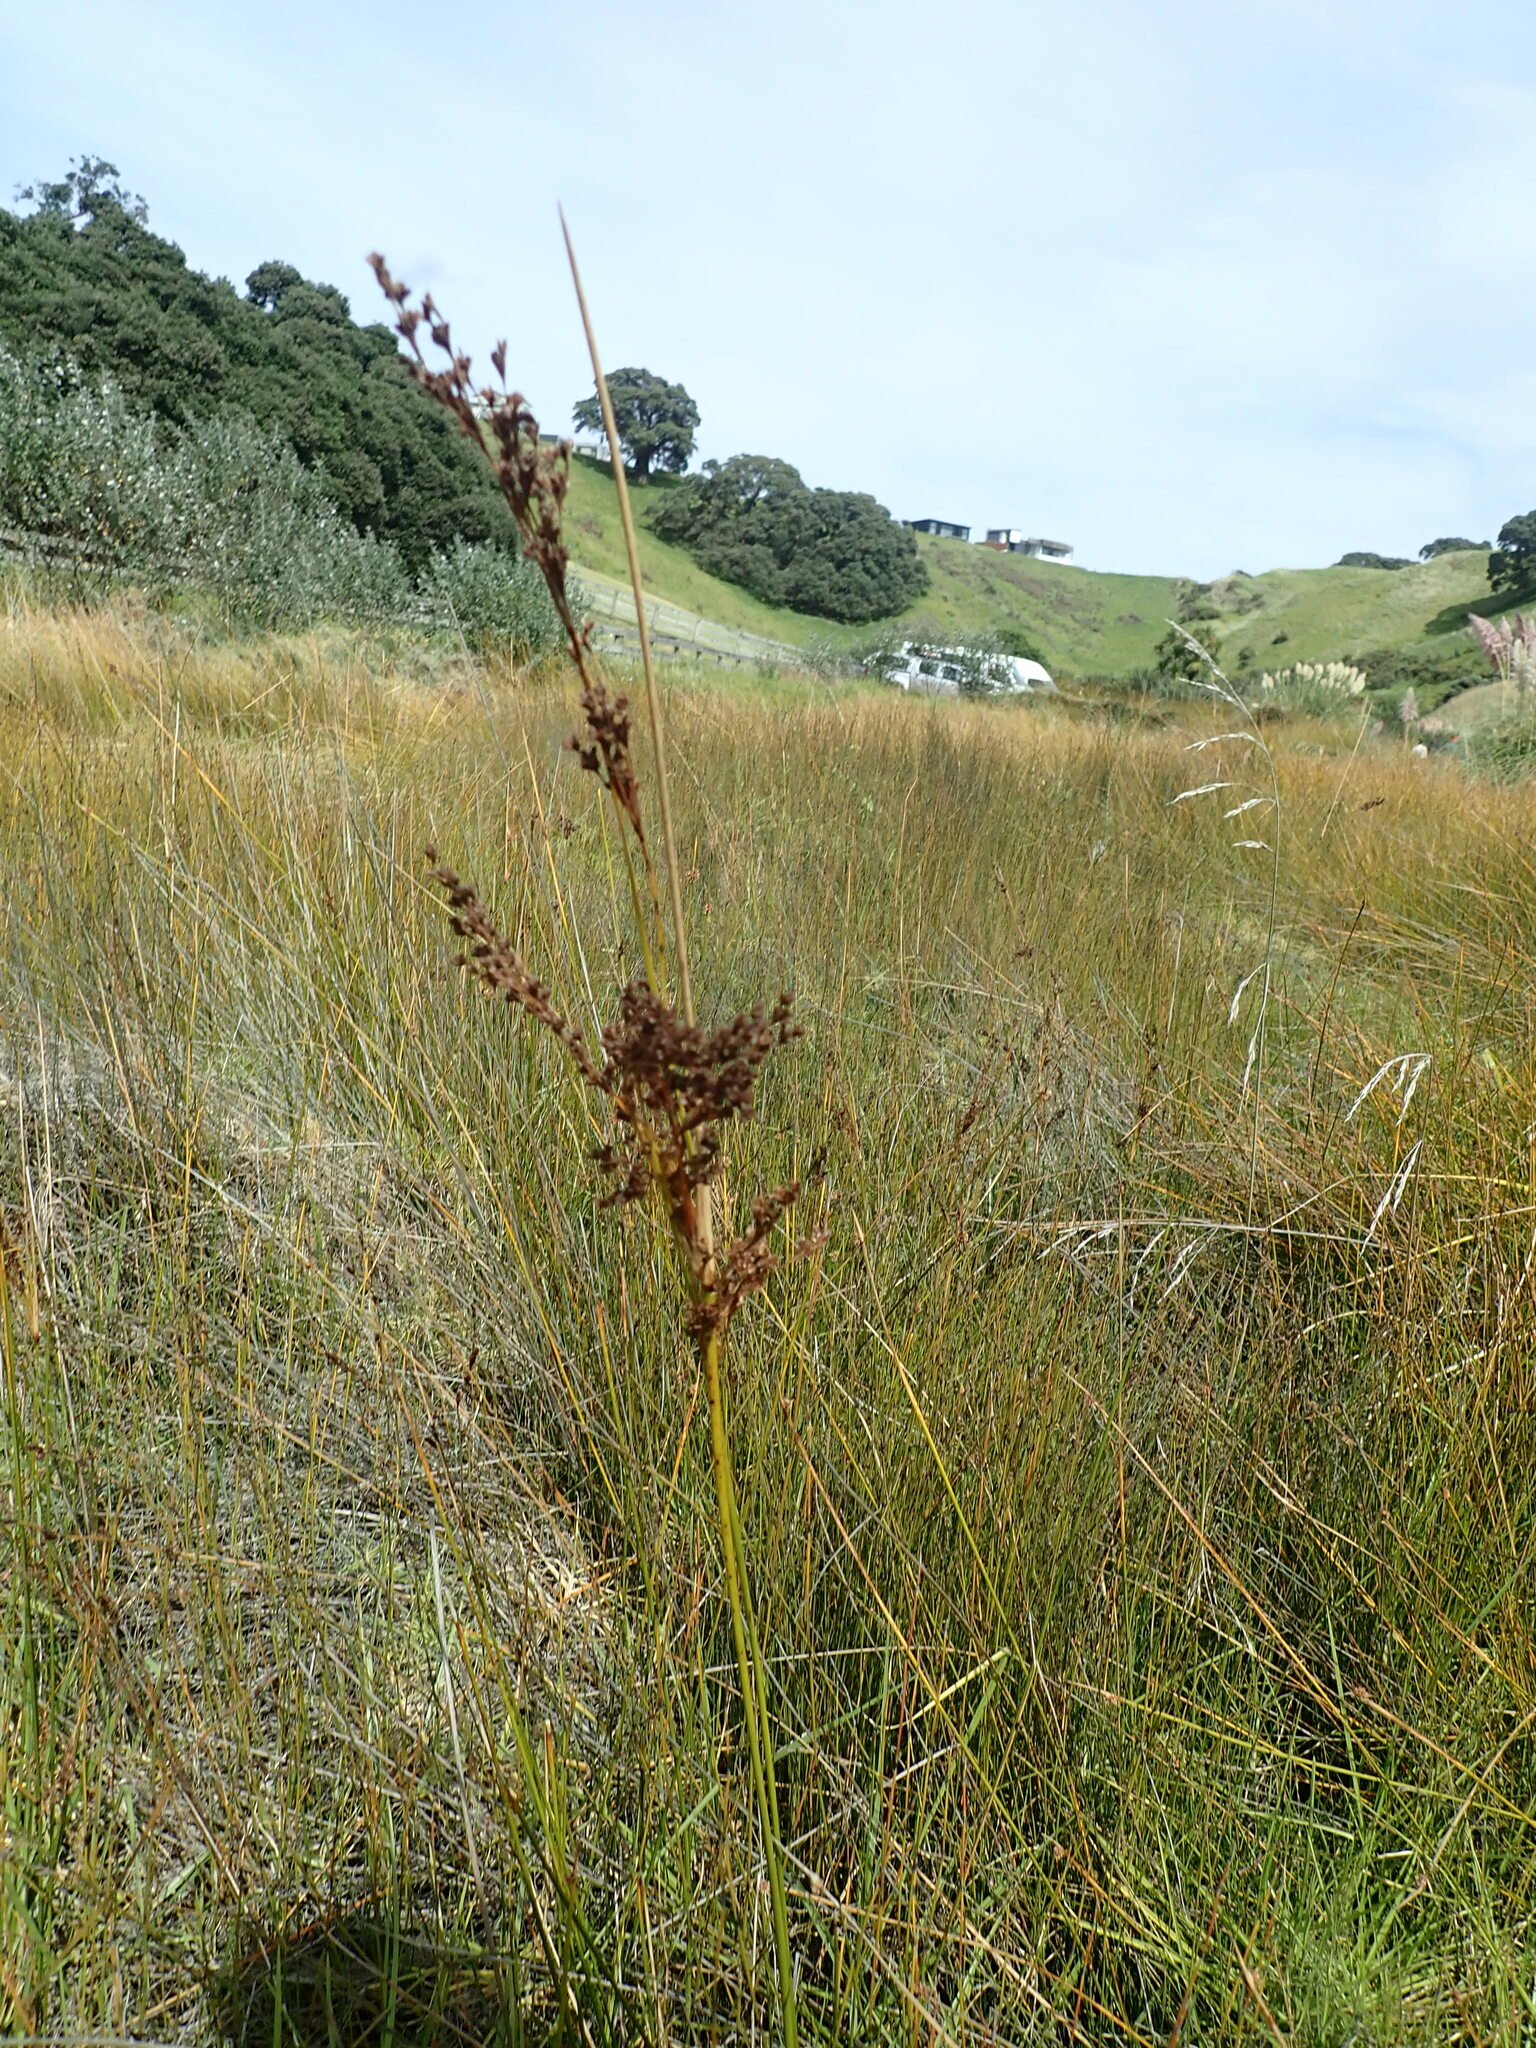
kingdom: Plantae
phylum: Tracheophyta
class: Liliopsida
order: Poales
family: Juncaceae
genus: Juncus
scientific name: Juncus kraussii
